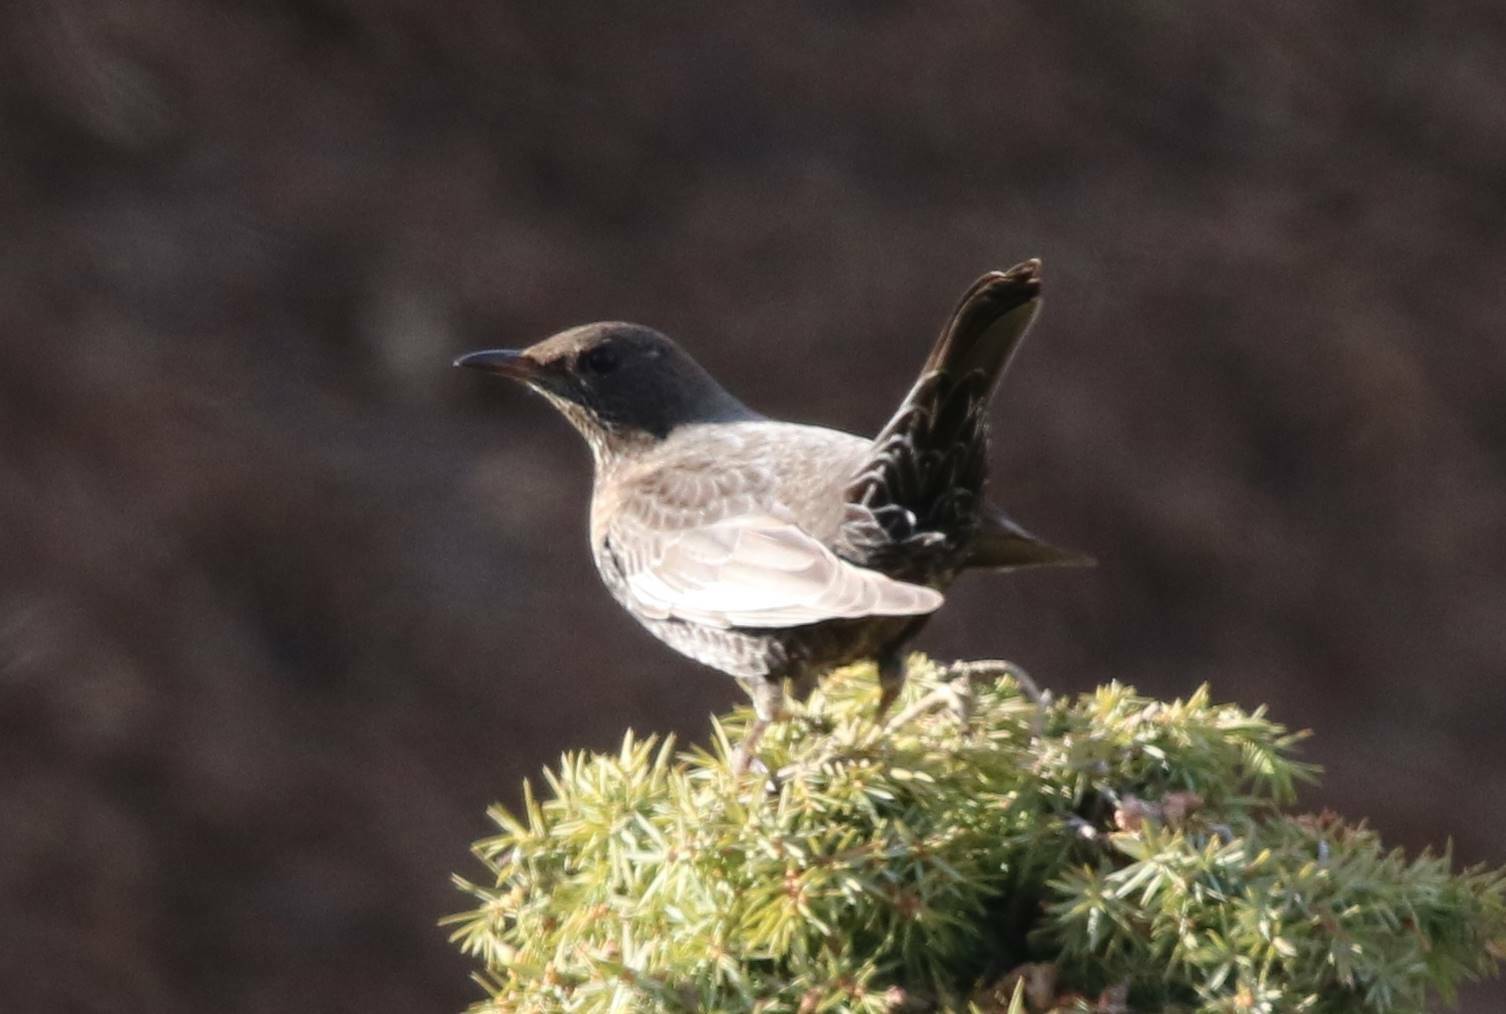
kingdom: Animalia
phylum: Chordata
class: Aves
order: Passeriformes
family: Turdidae
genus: Turdus
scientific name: Turdus torquatus
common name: Ring ouzel
